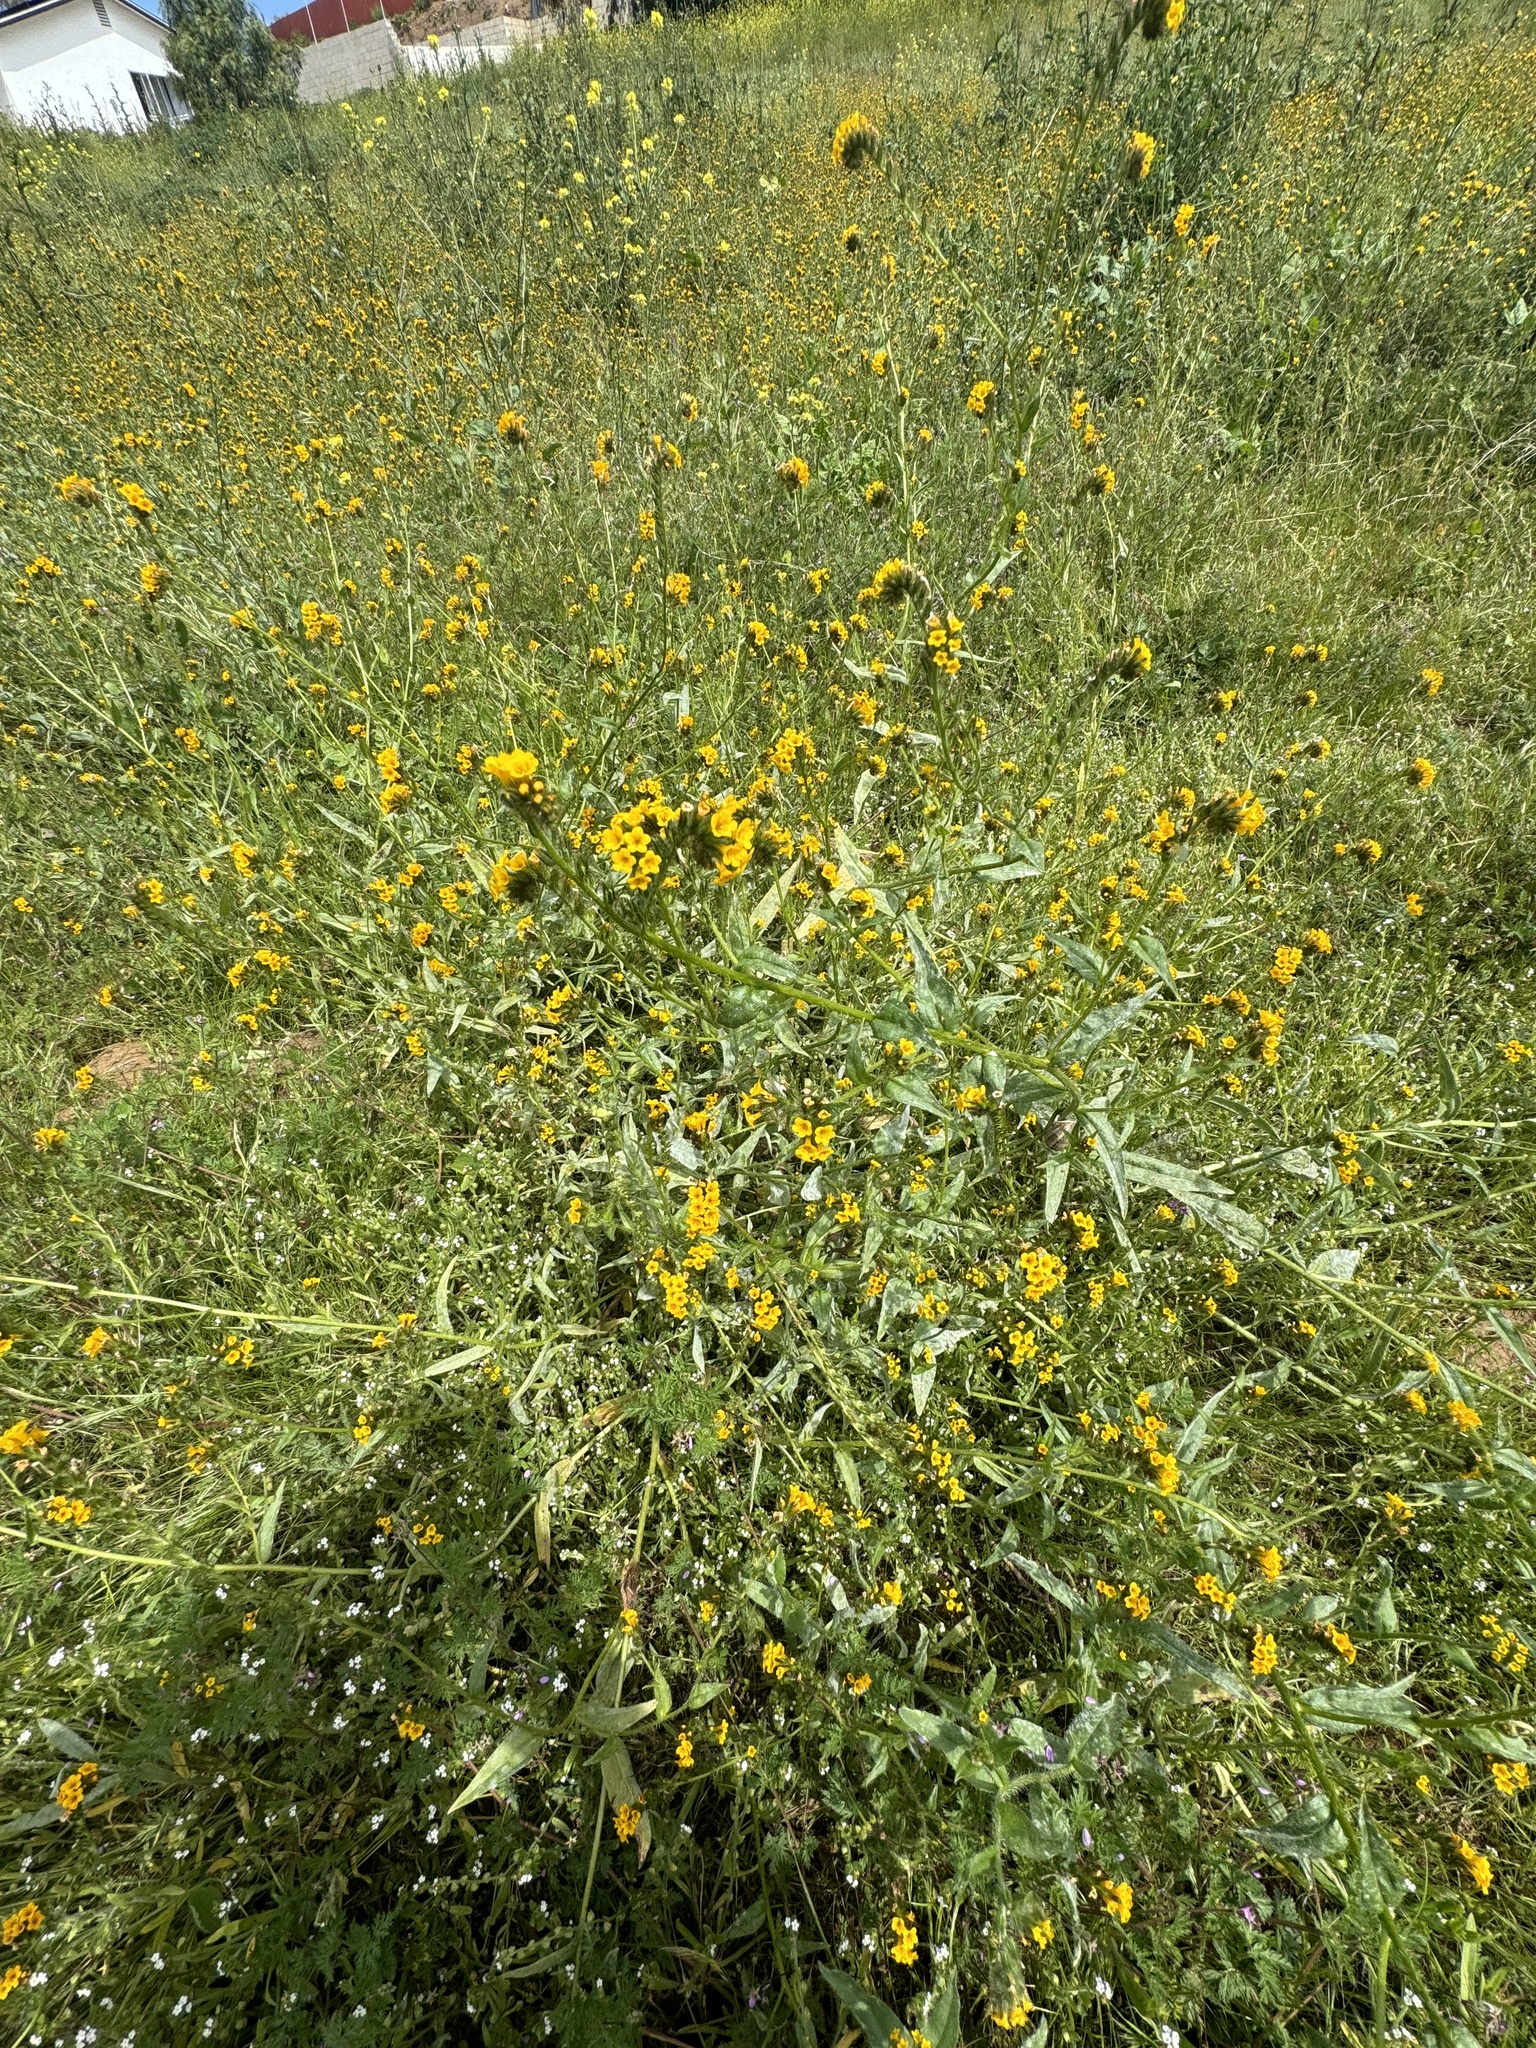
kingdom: Plantae
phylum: Tracheophyta
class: Magnoliopsida
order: Boraginales
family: Boraginaceae
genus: Amsinckia
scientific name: Amsinckia menziesii
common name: Menzies' fiddleneck
